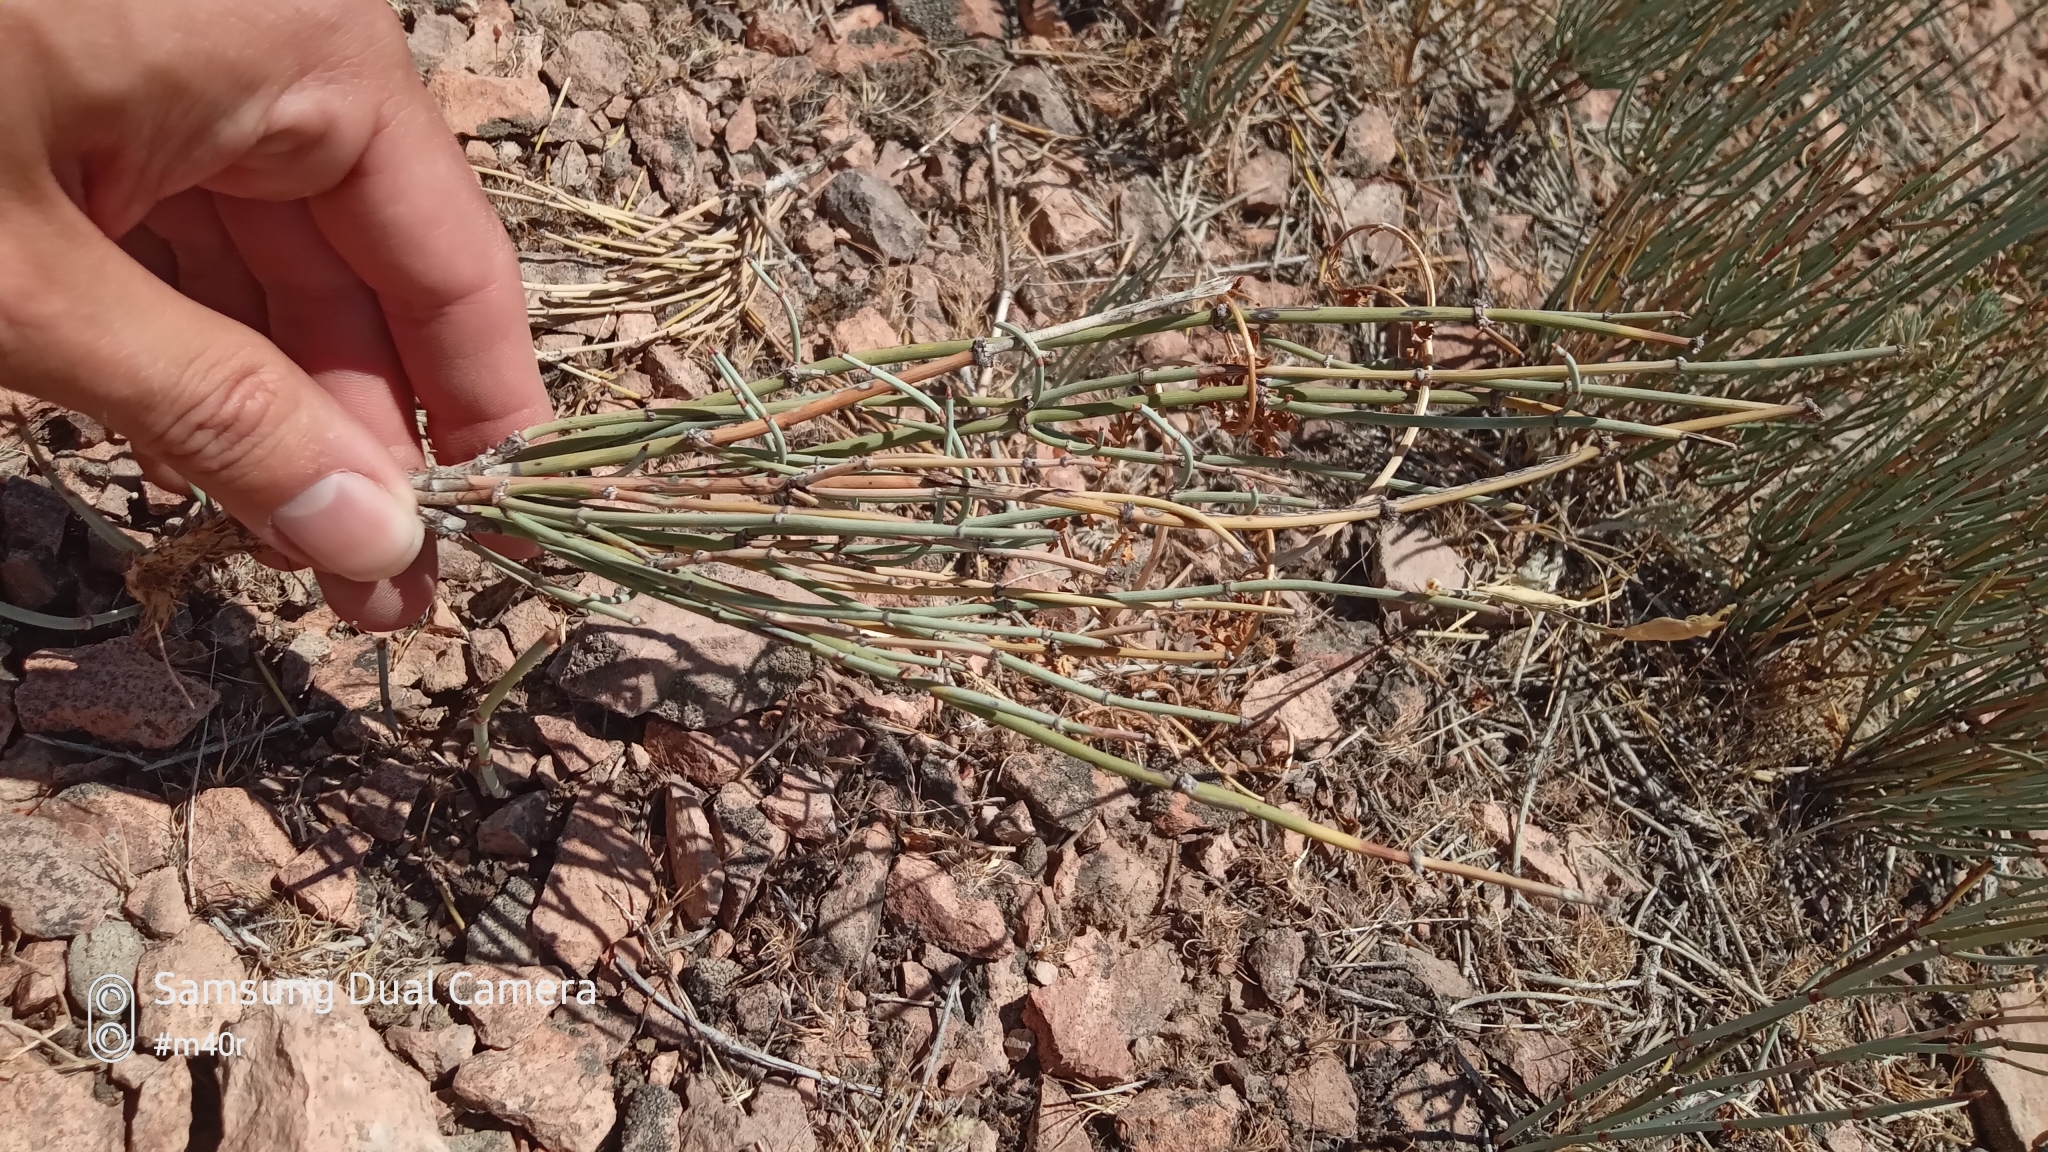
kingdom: Plantae
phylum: Tracheophyta
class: Gnetopsida
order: Ephedrales
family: Ephedraceae
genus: Ephedra
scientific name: Ephedra intermedia
